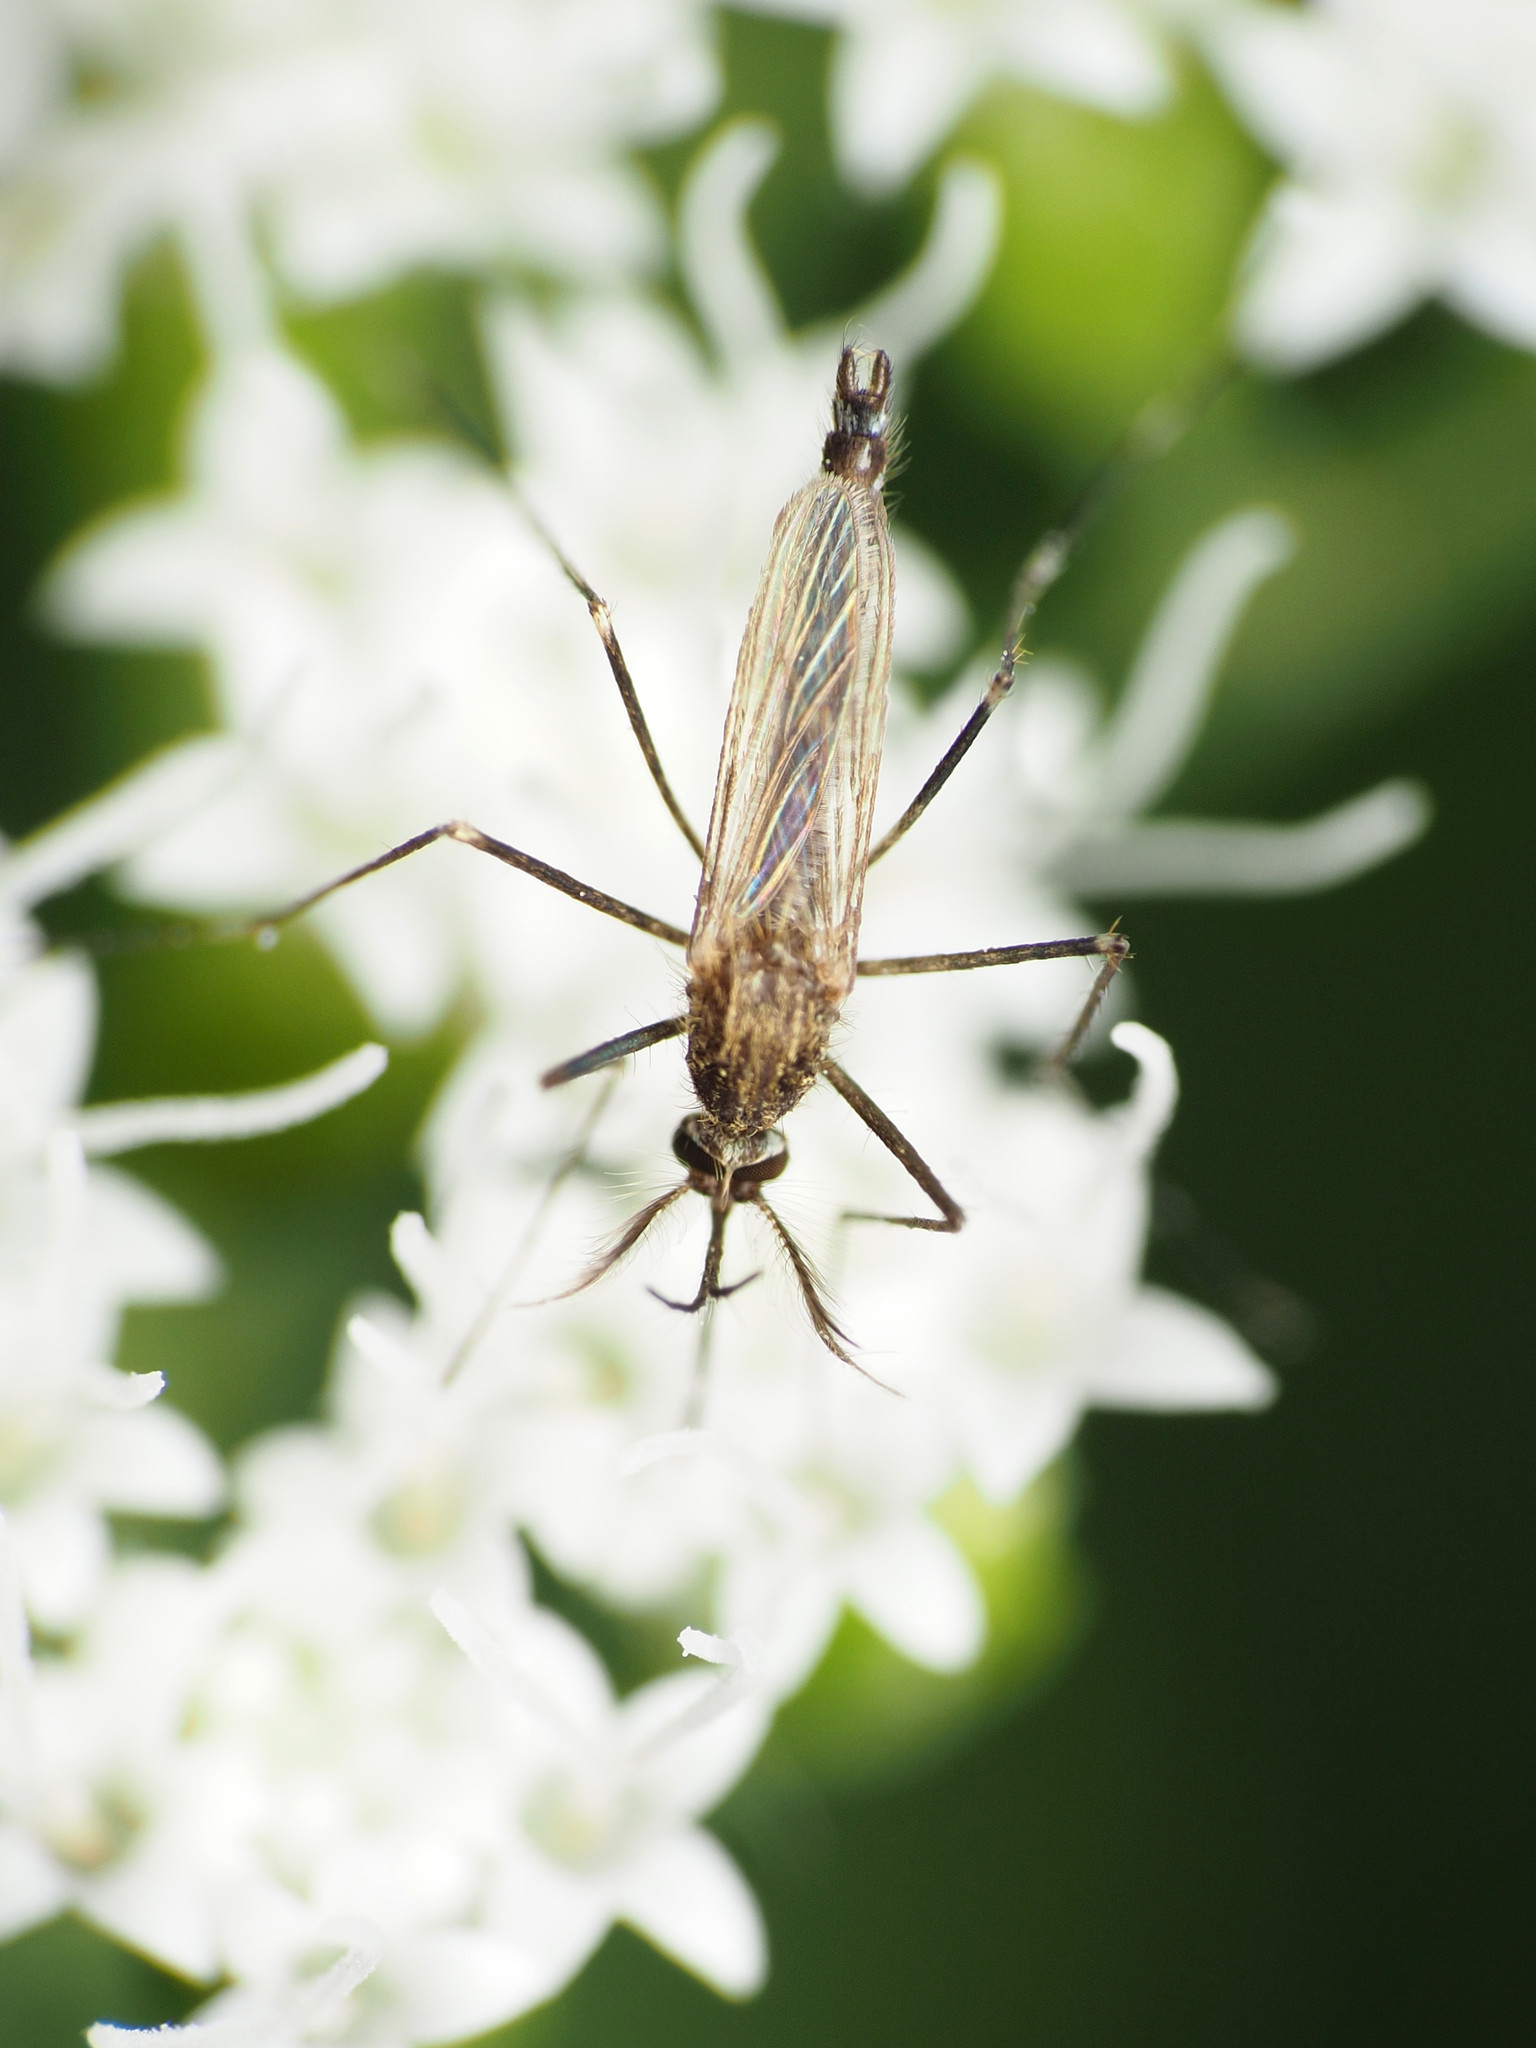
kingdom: Animalia
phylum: Arthropoda
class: Insecta
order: Diptera
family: Culicidae
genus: Aedes
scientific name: Aedes japonicus
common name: Asian bush mosquito
